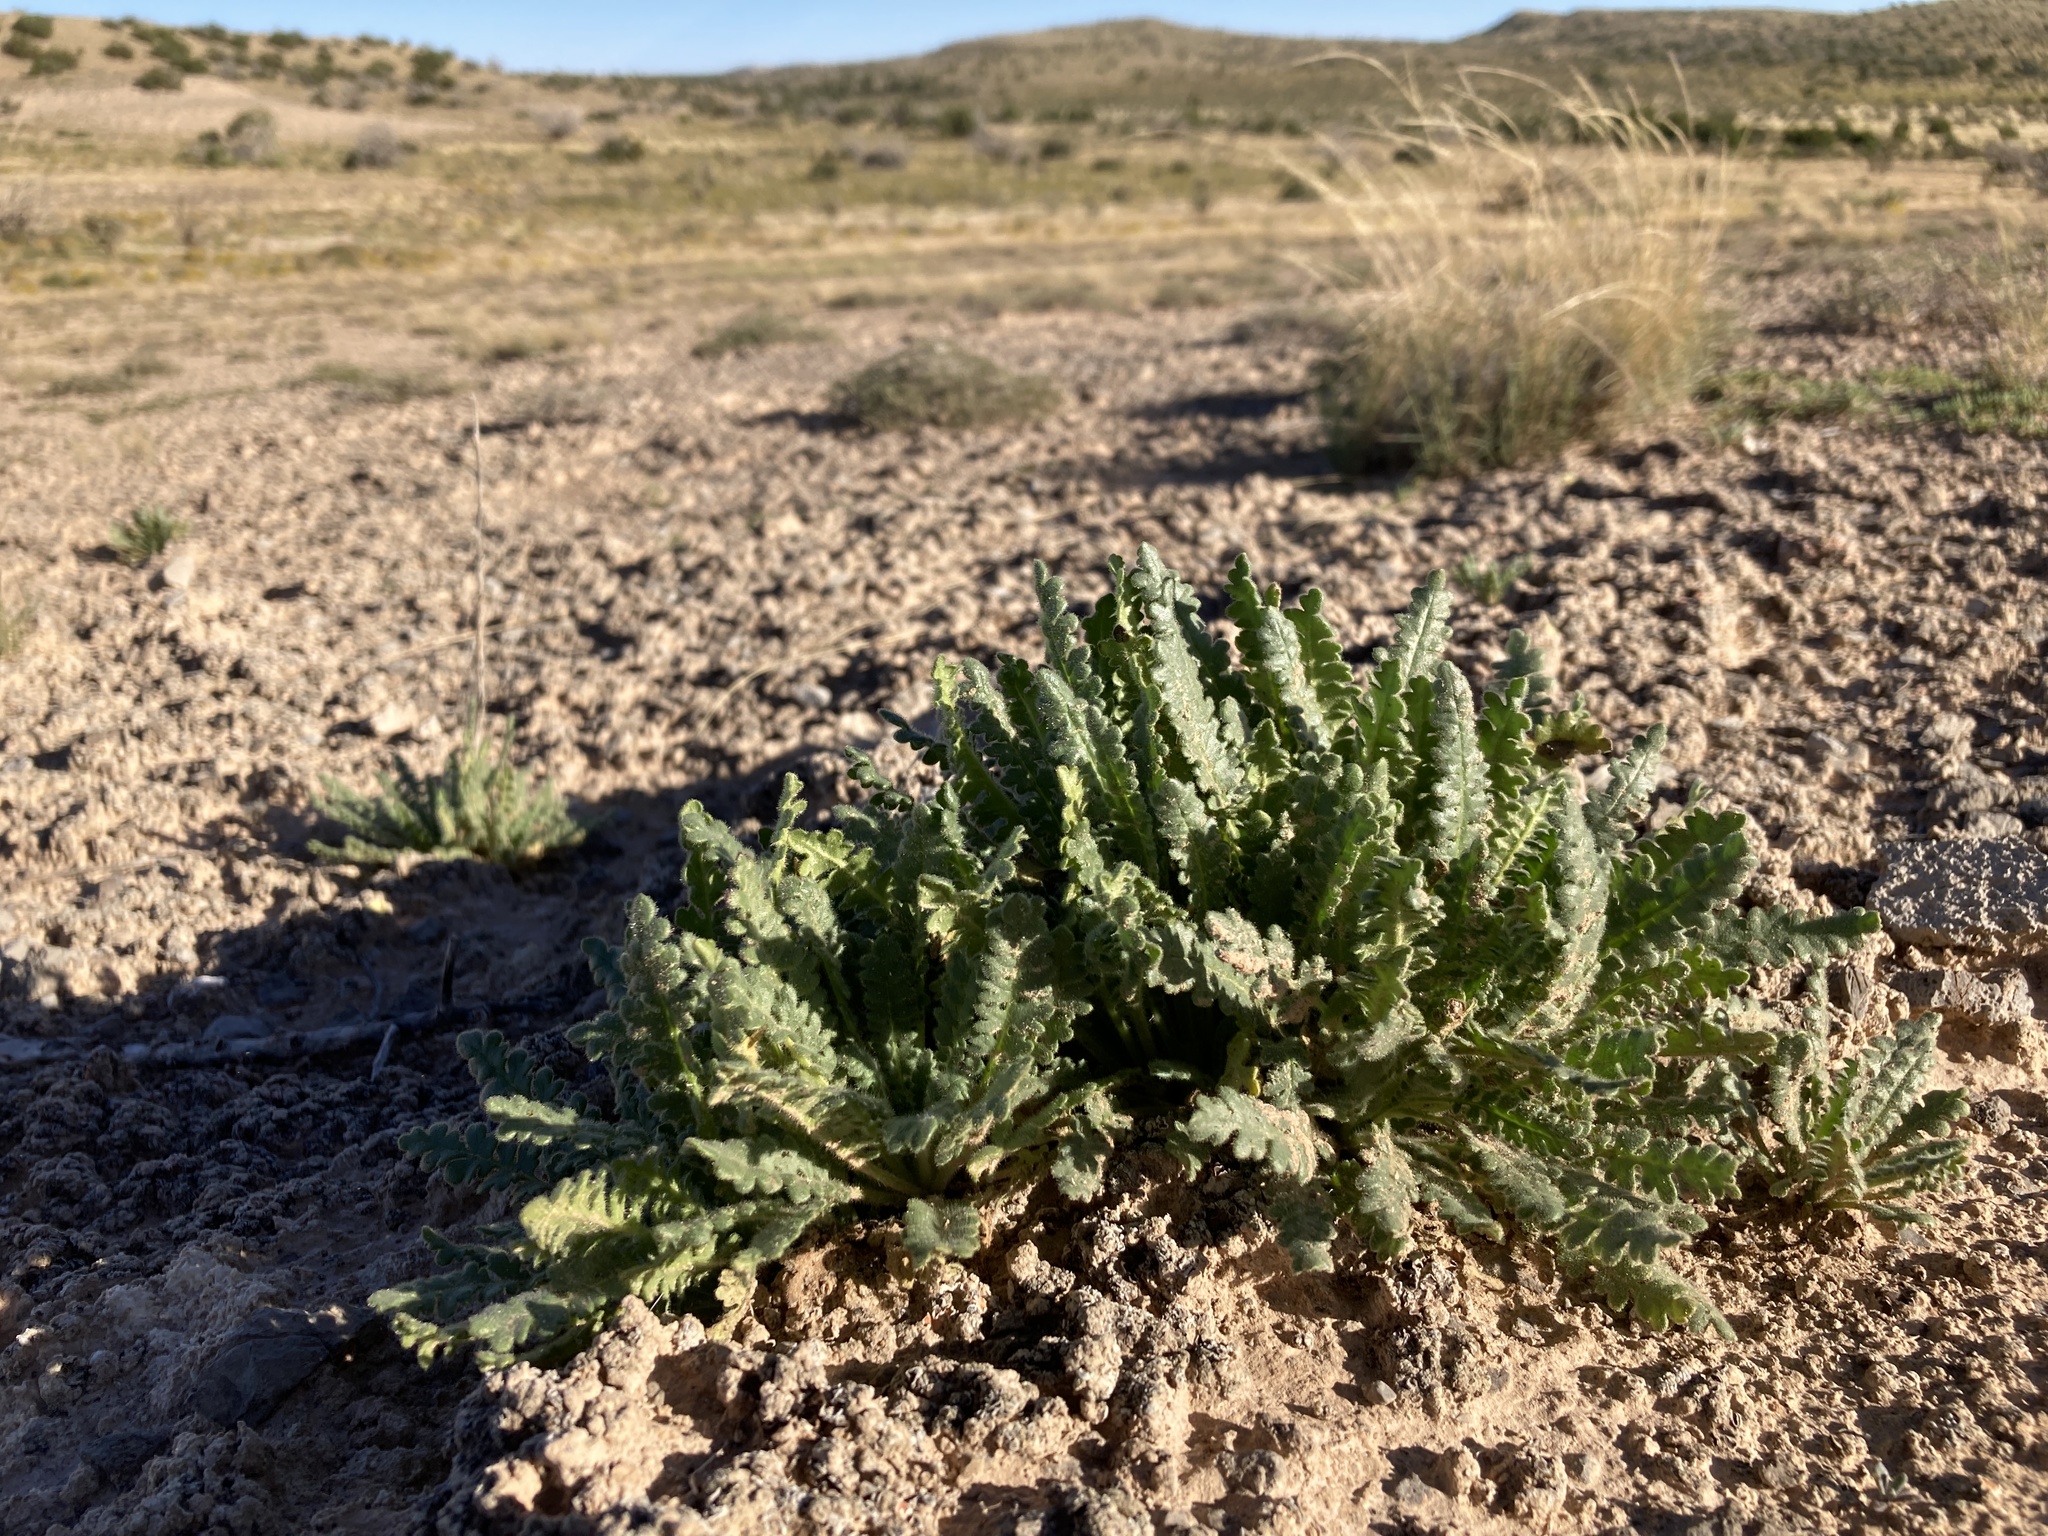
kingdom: Plantae
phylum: Tracheophyta
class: Magnoliopsida
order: Boraginales
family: Hydrophyllaceae
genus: Phacelia
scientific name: Phacelia sivinskii
